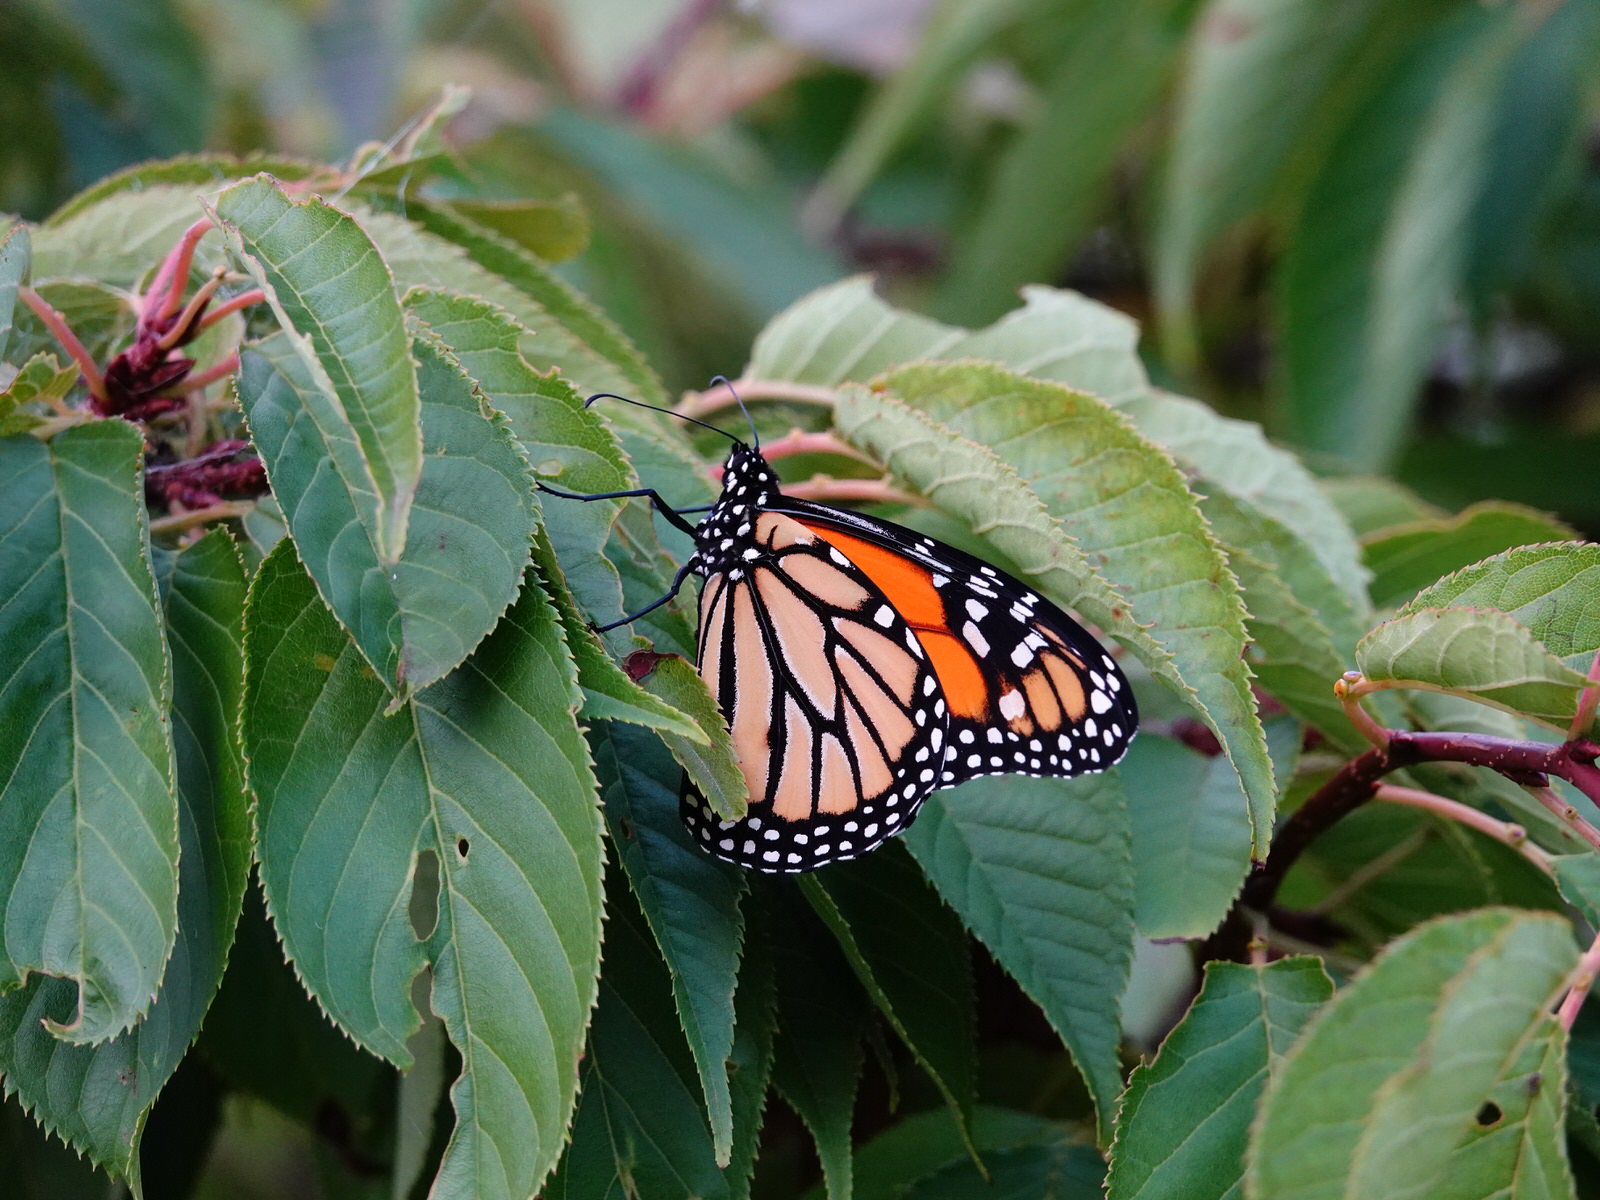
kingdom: Animalia
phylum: Arthropoda
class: Insecta
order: Lepidoptera
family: Nymphalidae
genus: Danaus
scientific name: Danaus plexippus
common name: Monarch
